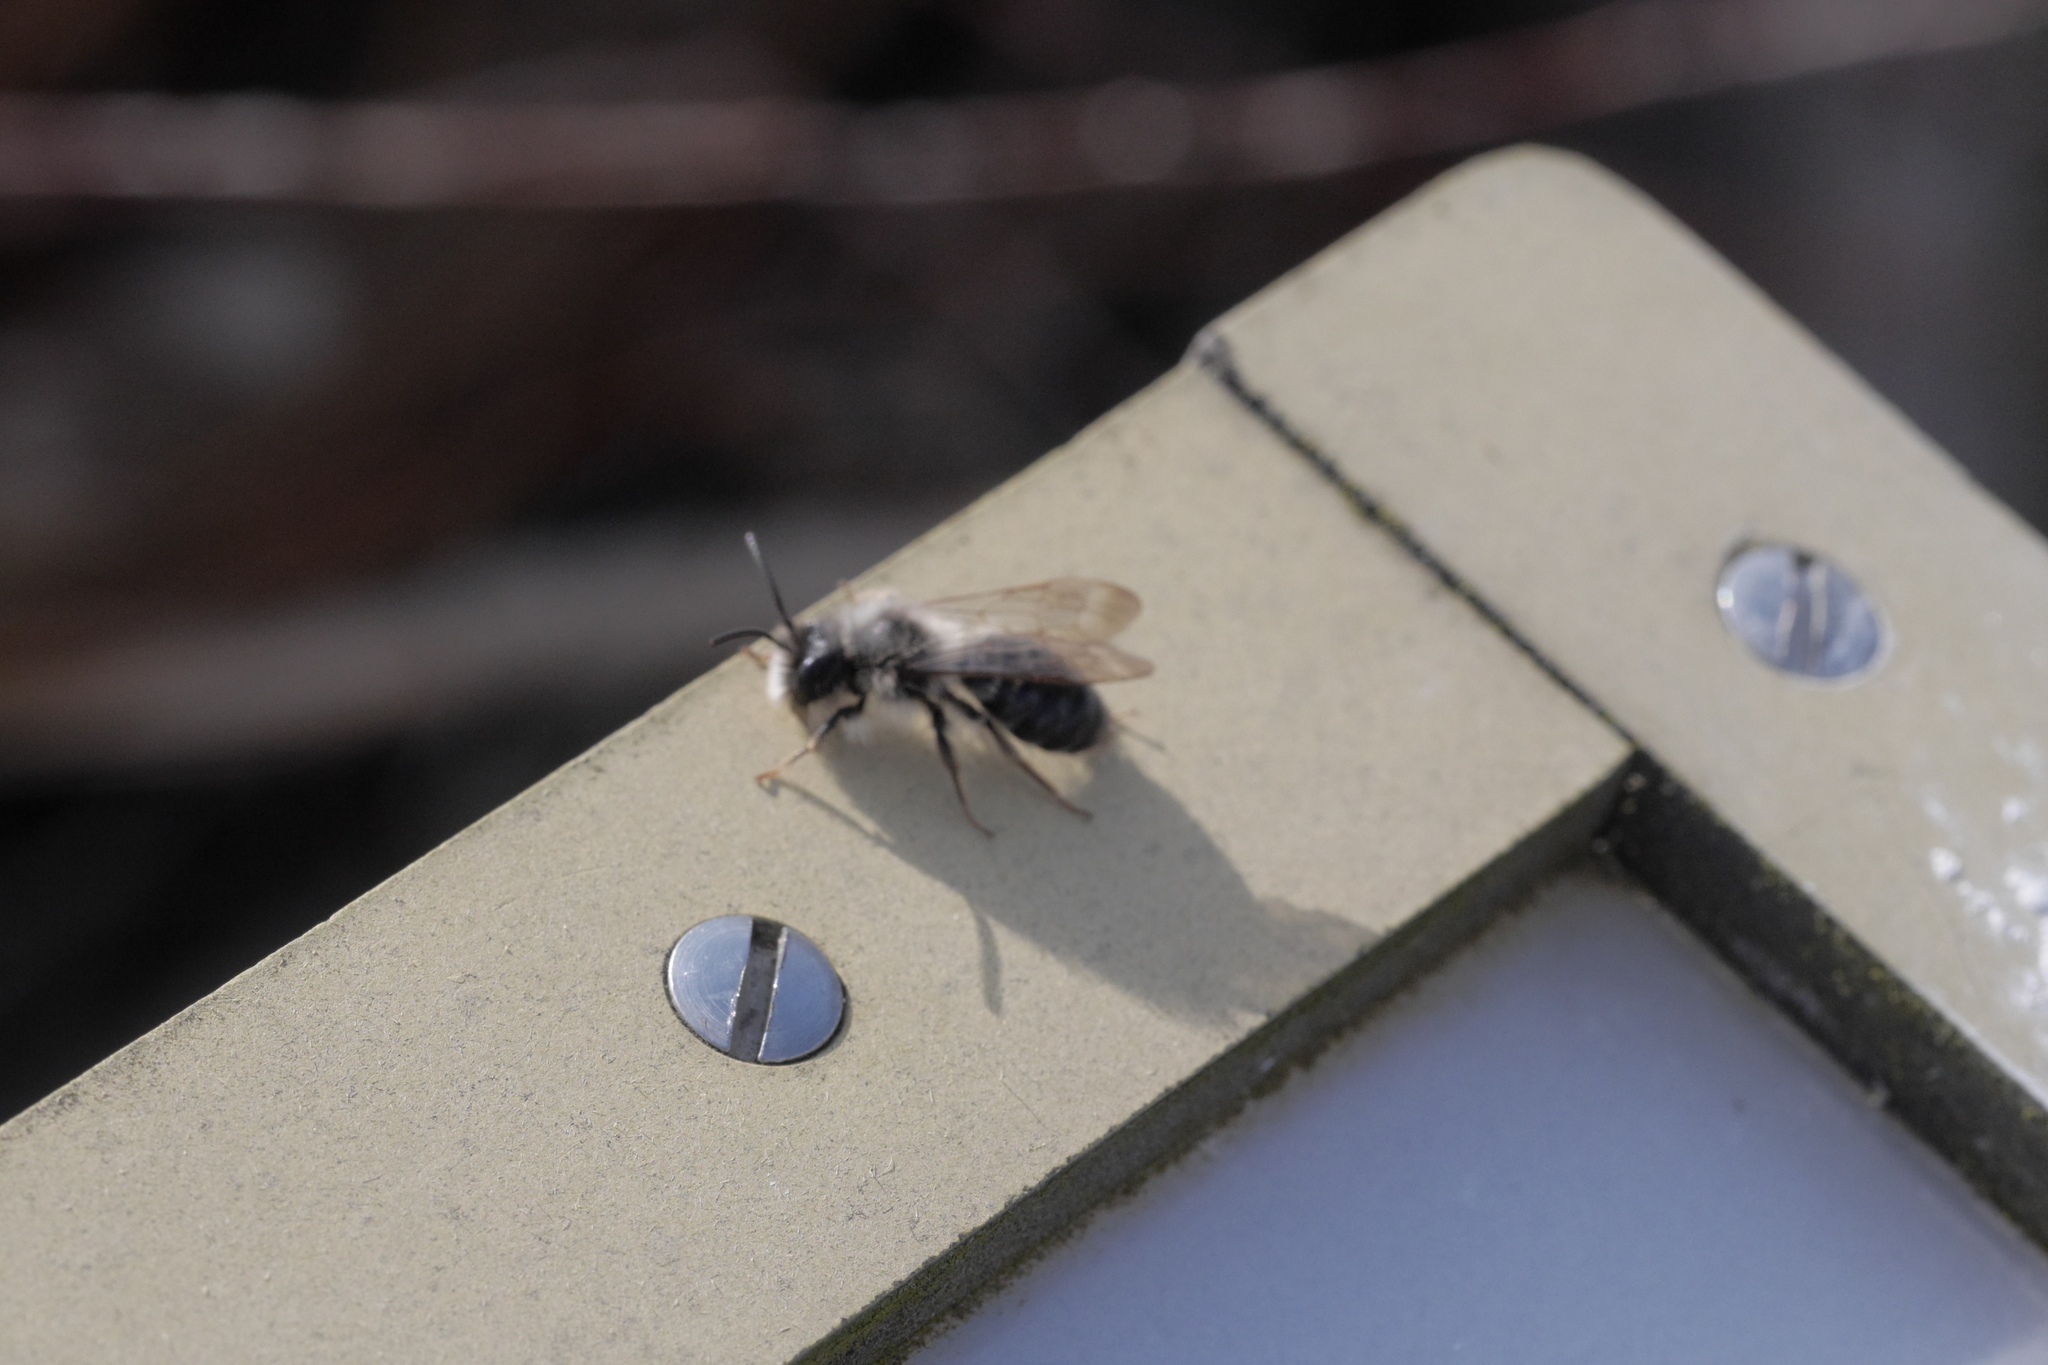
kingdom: Animalia
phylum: Arthropoda
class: Insecta
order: Hymenoptera
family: Andrenidae
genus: Andrena
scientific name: Andrena vaga
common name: Grey-backed mining bee
